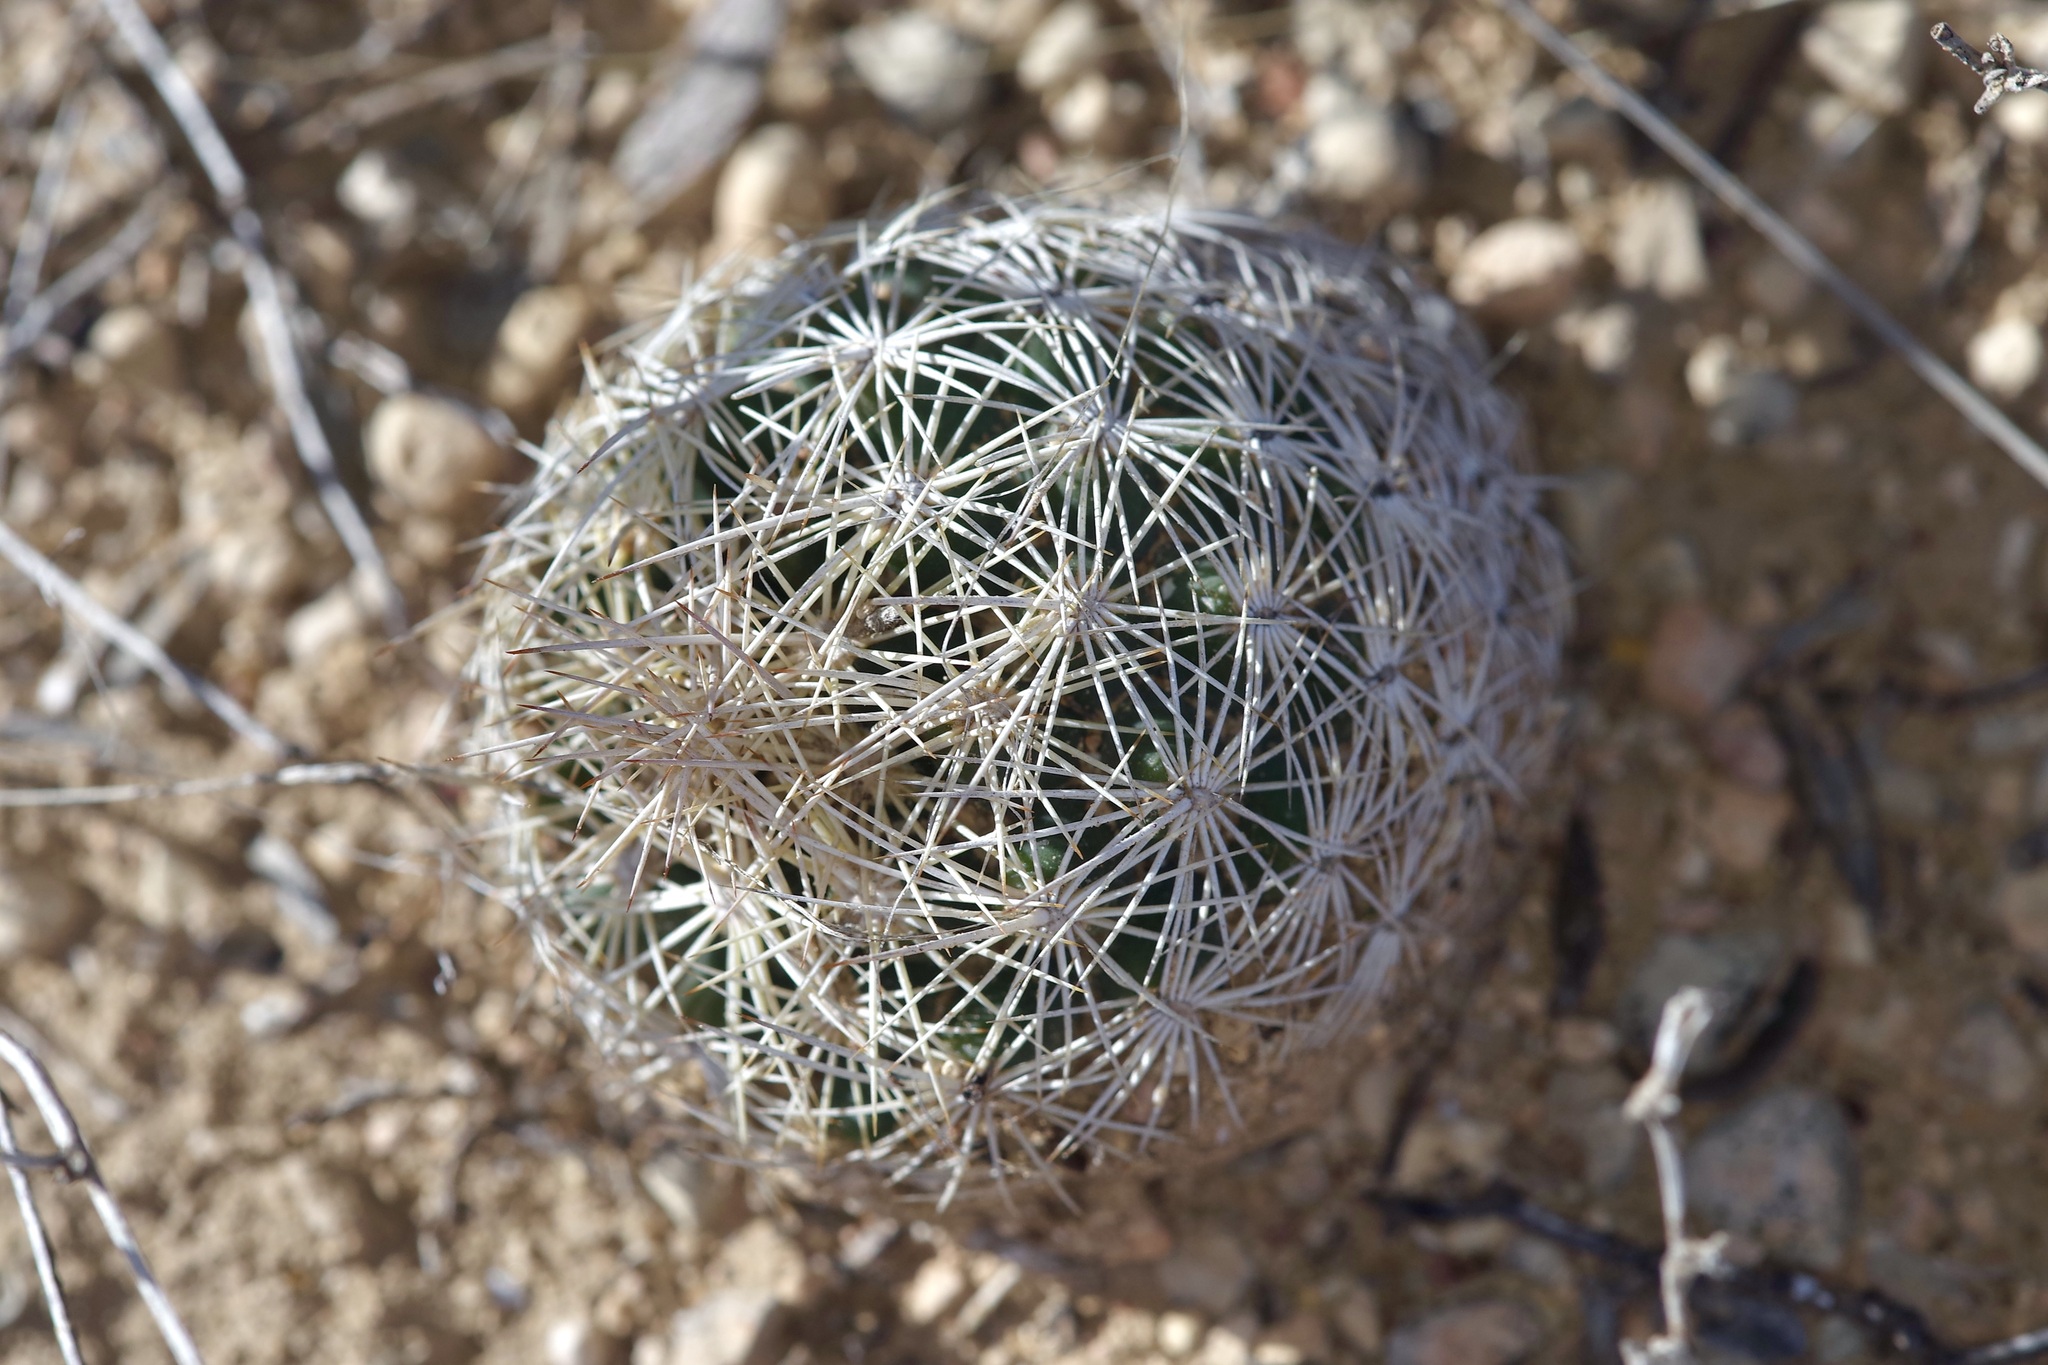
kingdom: Plantae
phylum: Tracheophyta
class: Magnoliopsida
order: Caryophyllales
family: Cactaceae
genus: Coryphantha
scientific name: Coryphantha echinus
